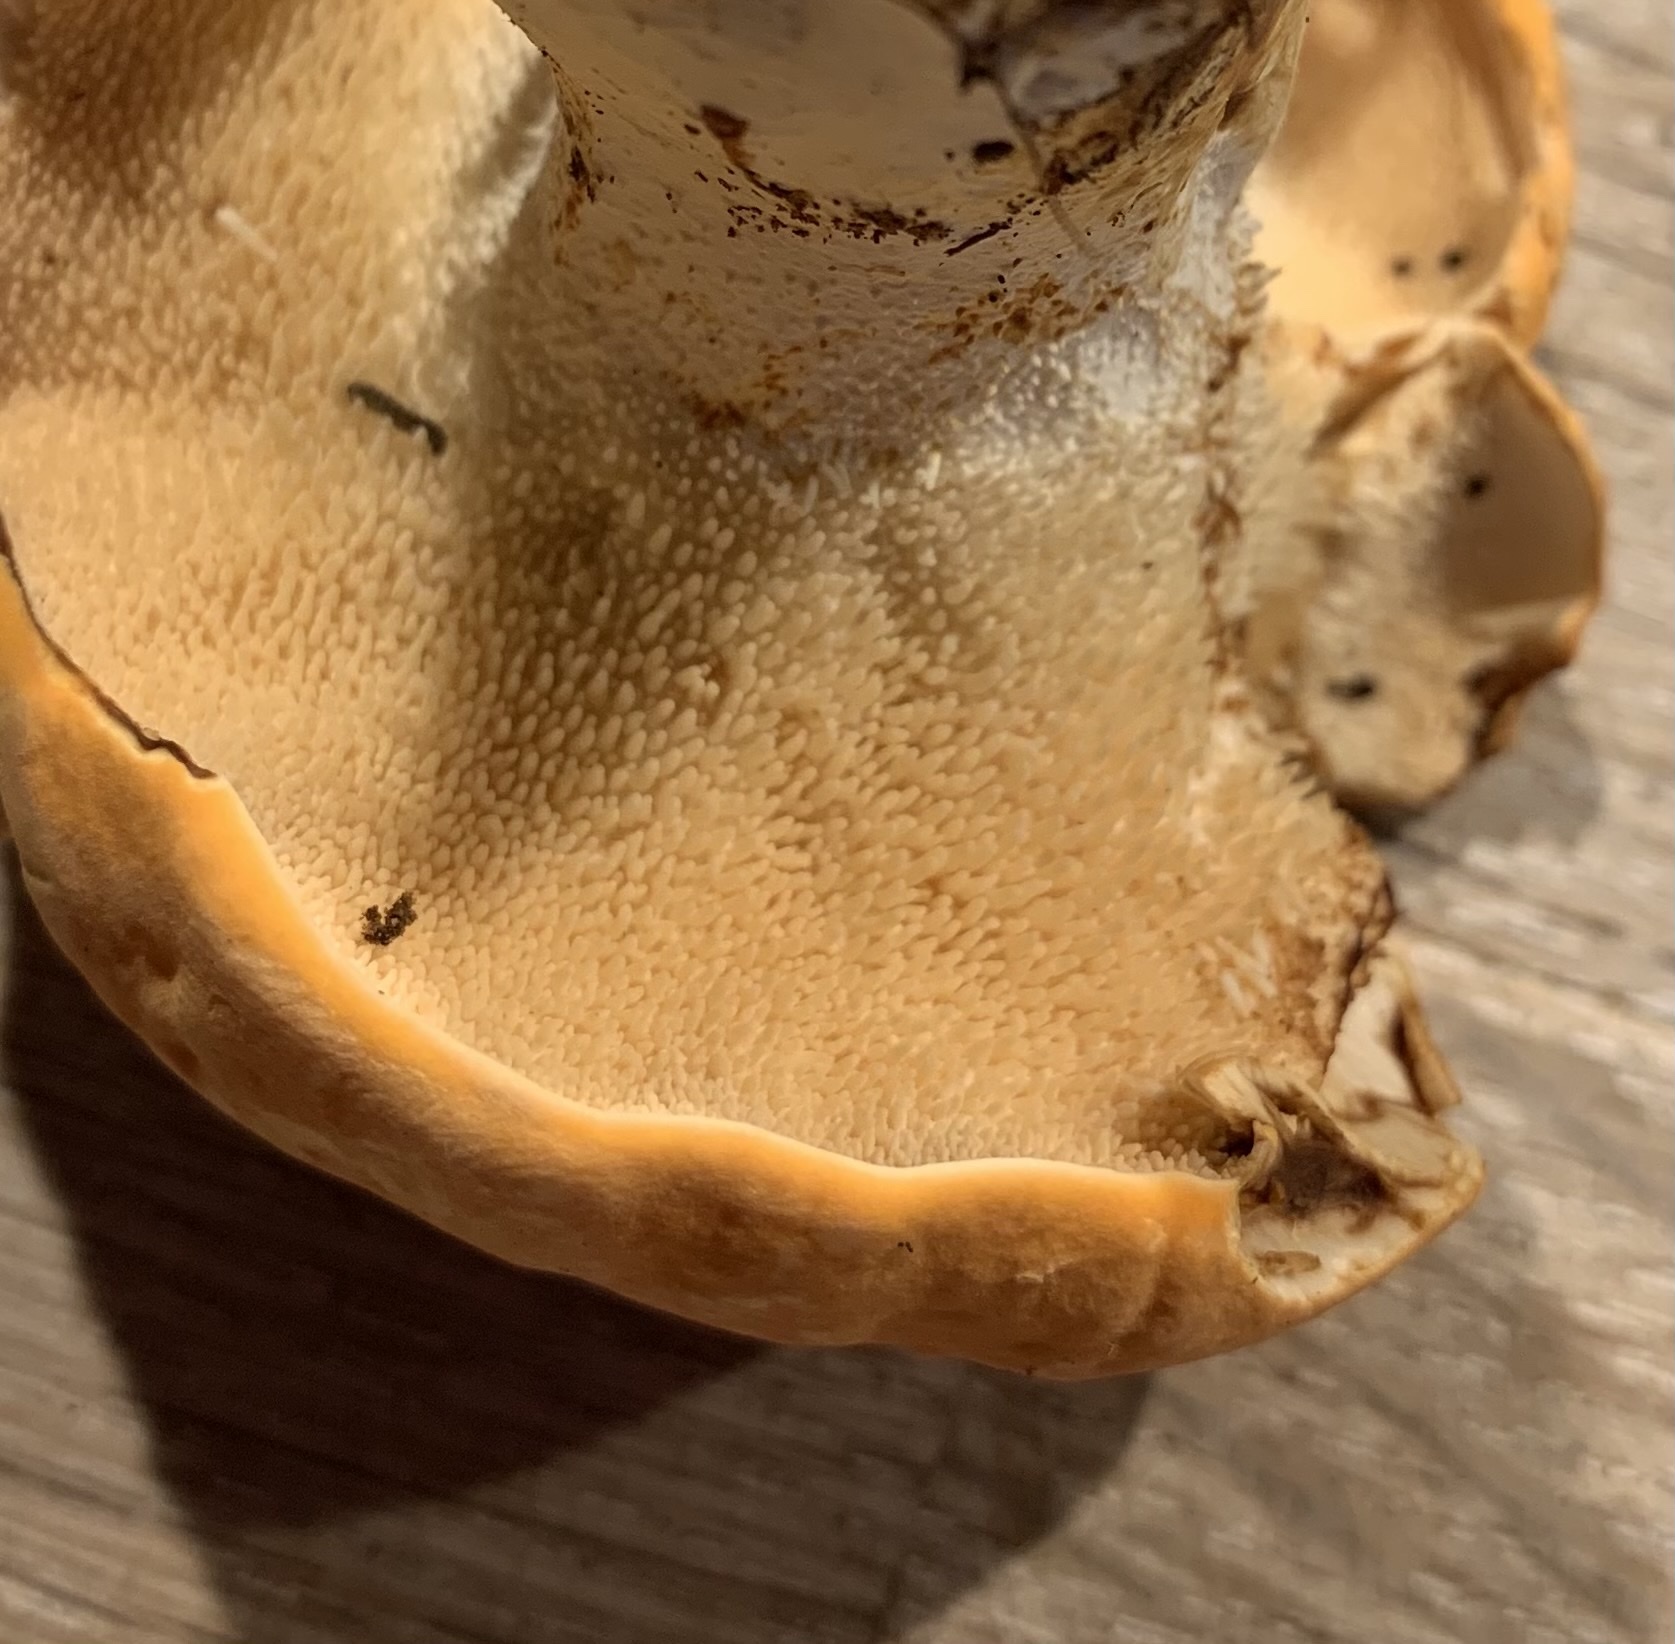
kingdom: Fungi
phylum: Basidiomycota
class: Agaricomycetes
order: Cantharellales
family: Hydnaceae
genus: Hydnum
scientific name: Hydnum repandum
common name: Wood hedgehog
